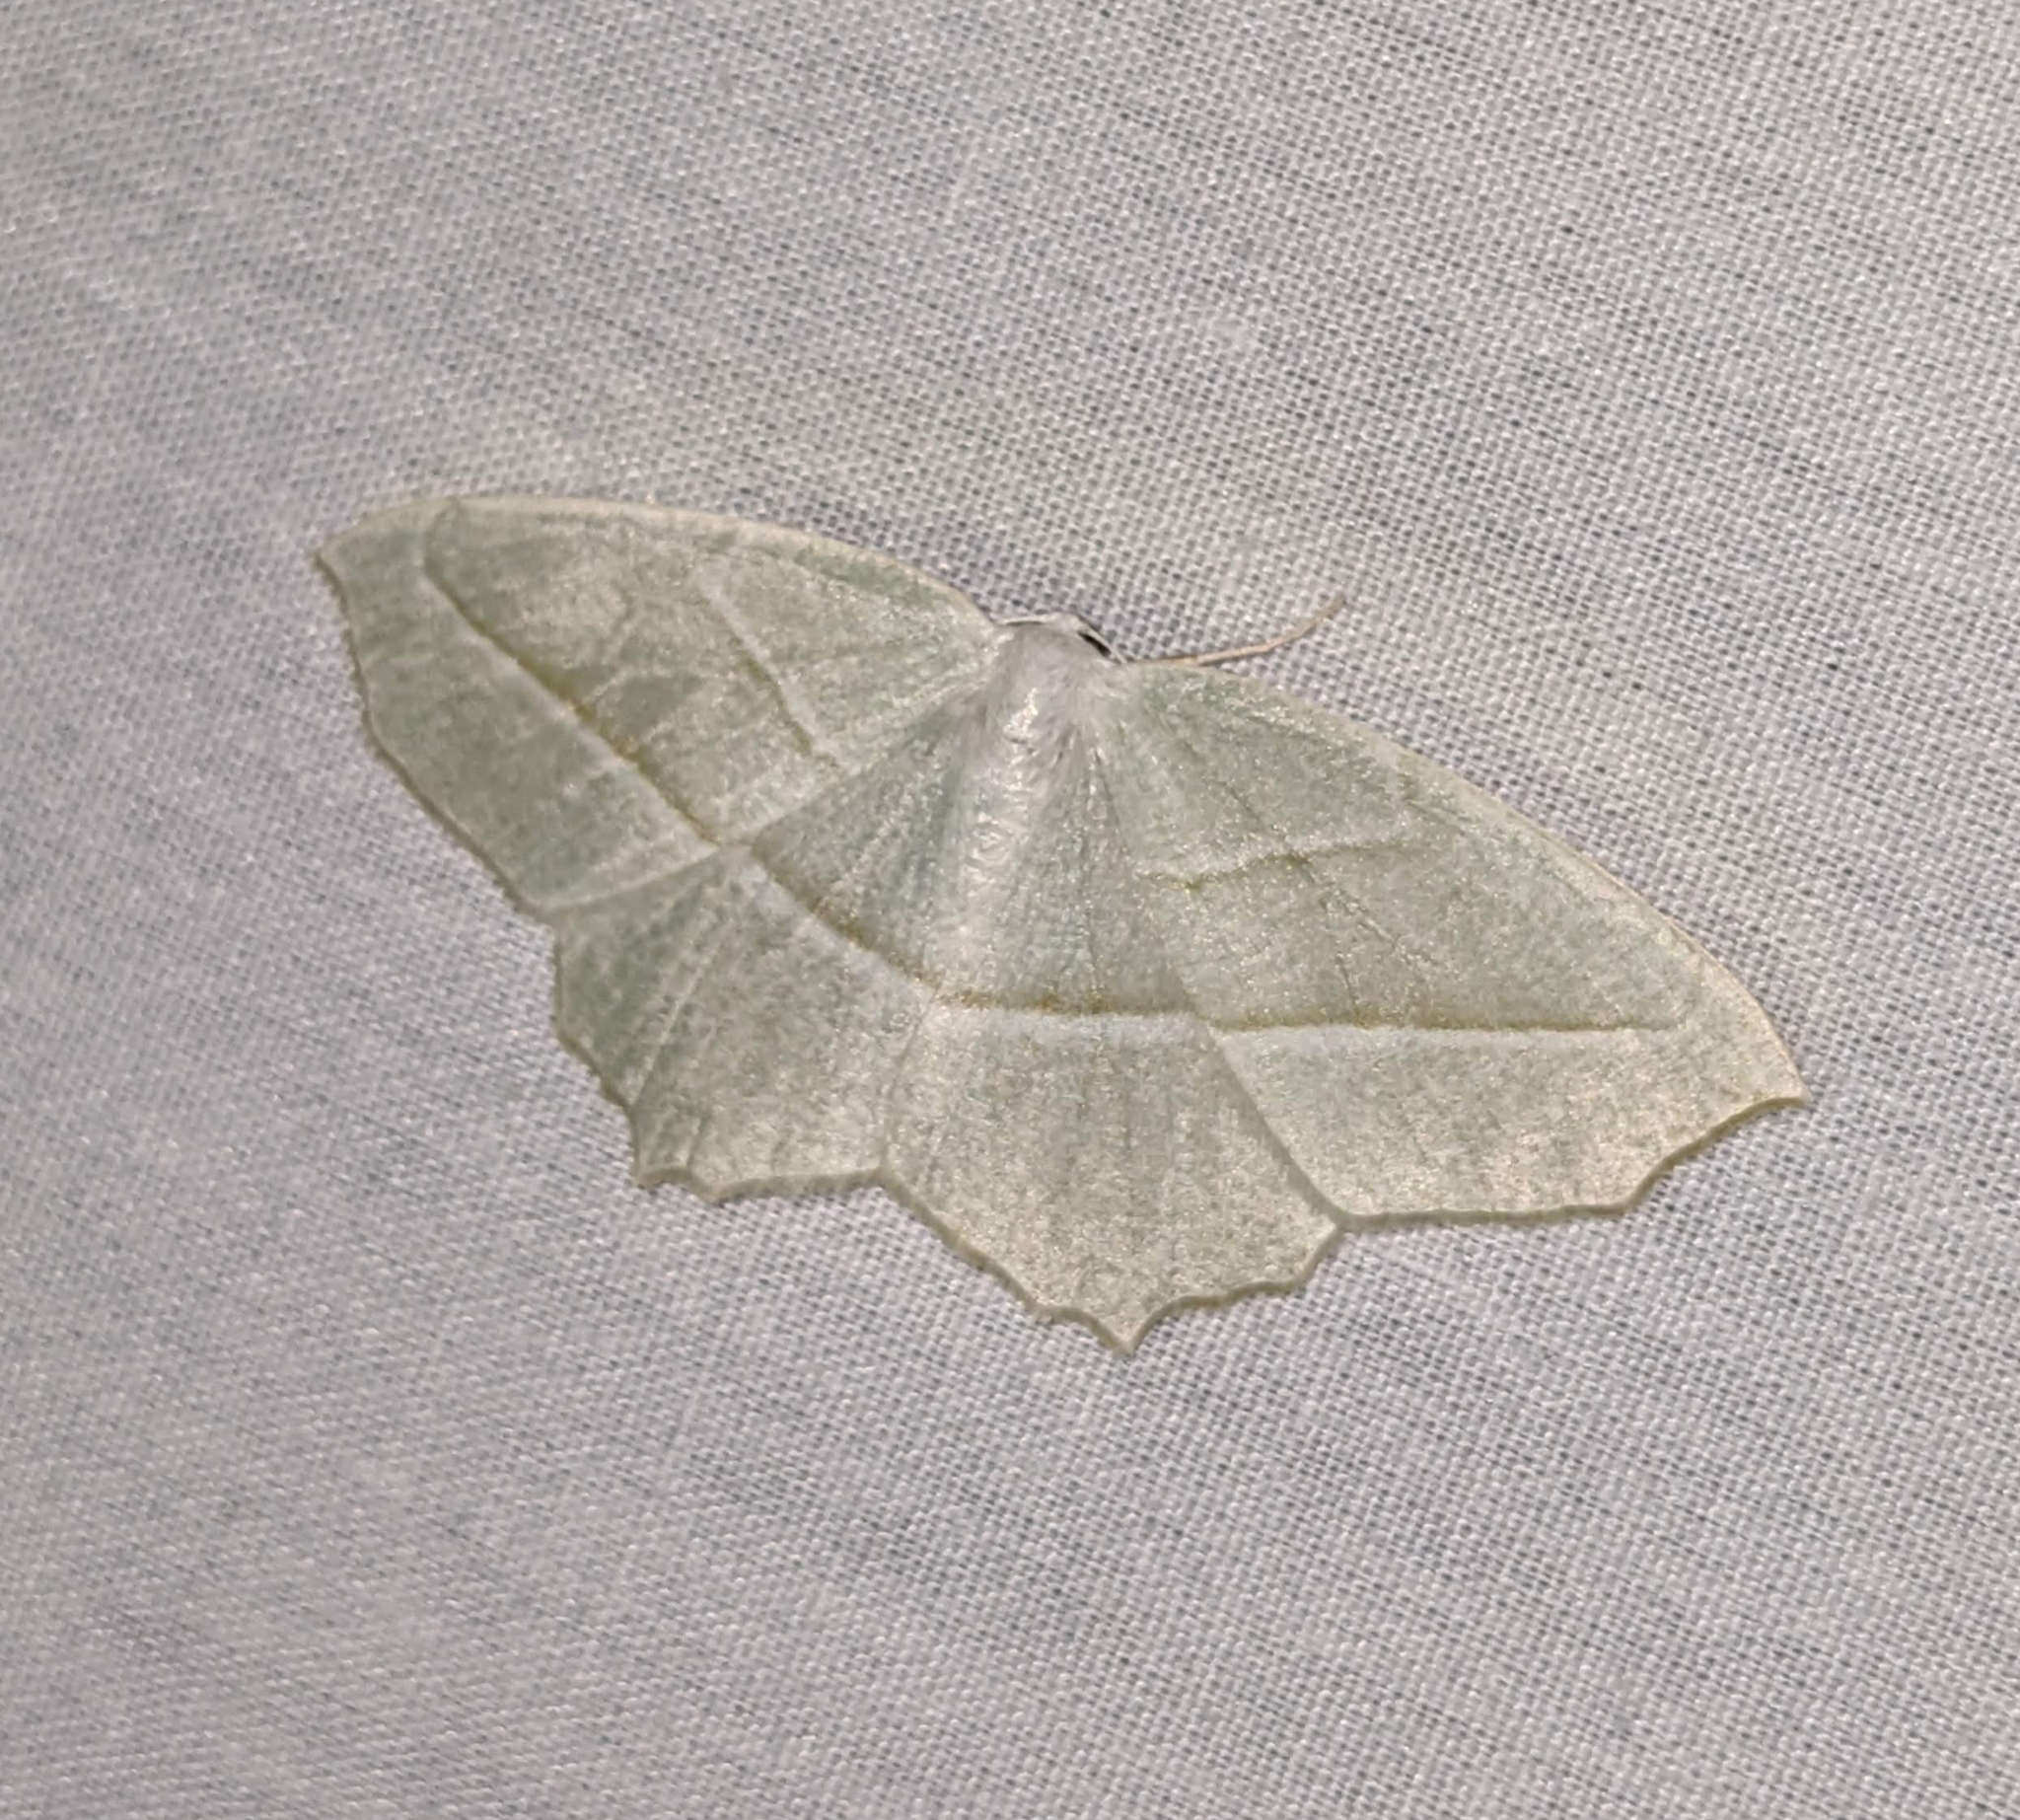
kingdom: Animalia
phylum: Arthropoda
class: Insecta
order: Lepidoptera
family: Geometridae
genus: Campaea
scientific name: Campaea perlata
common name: Fringed looper
